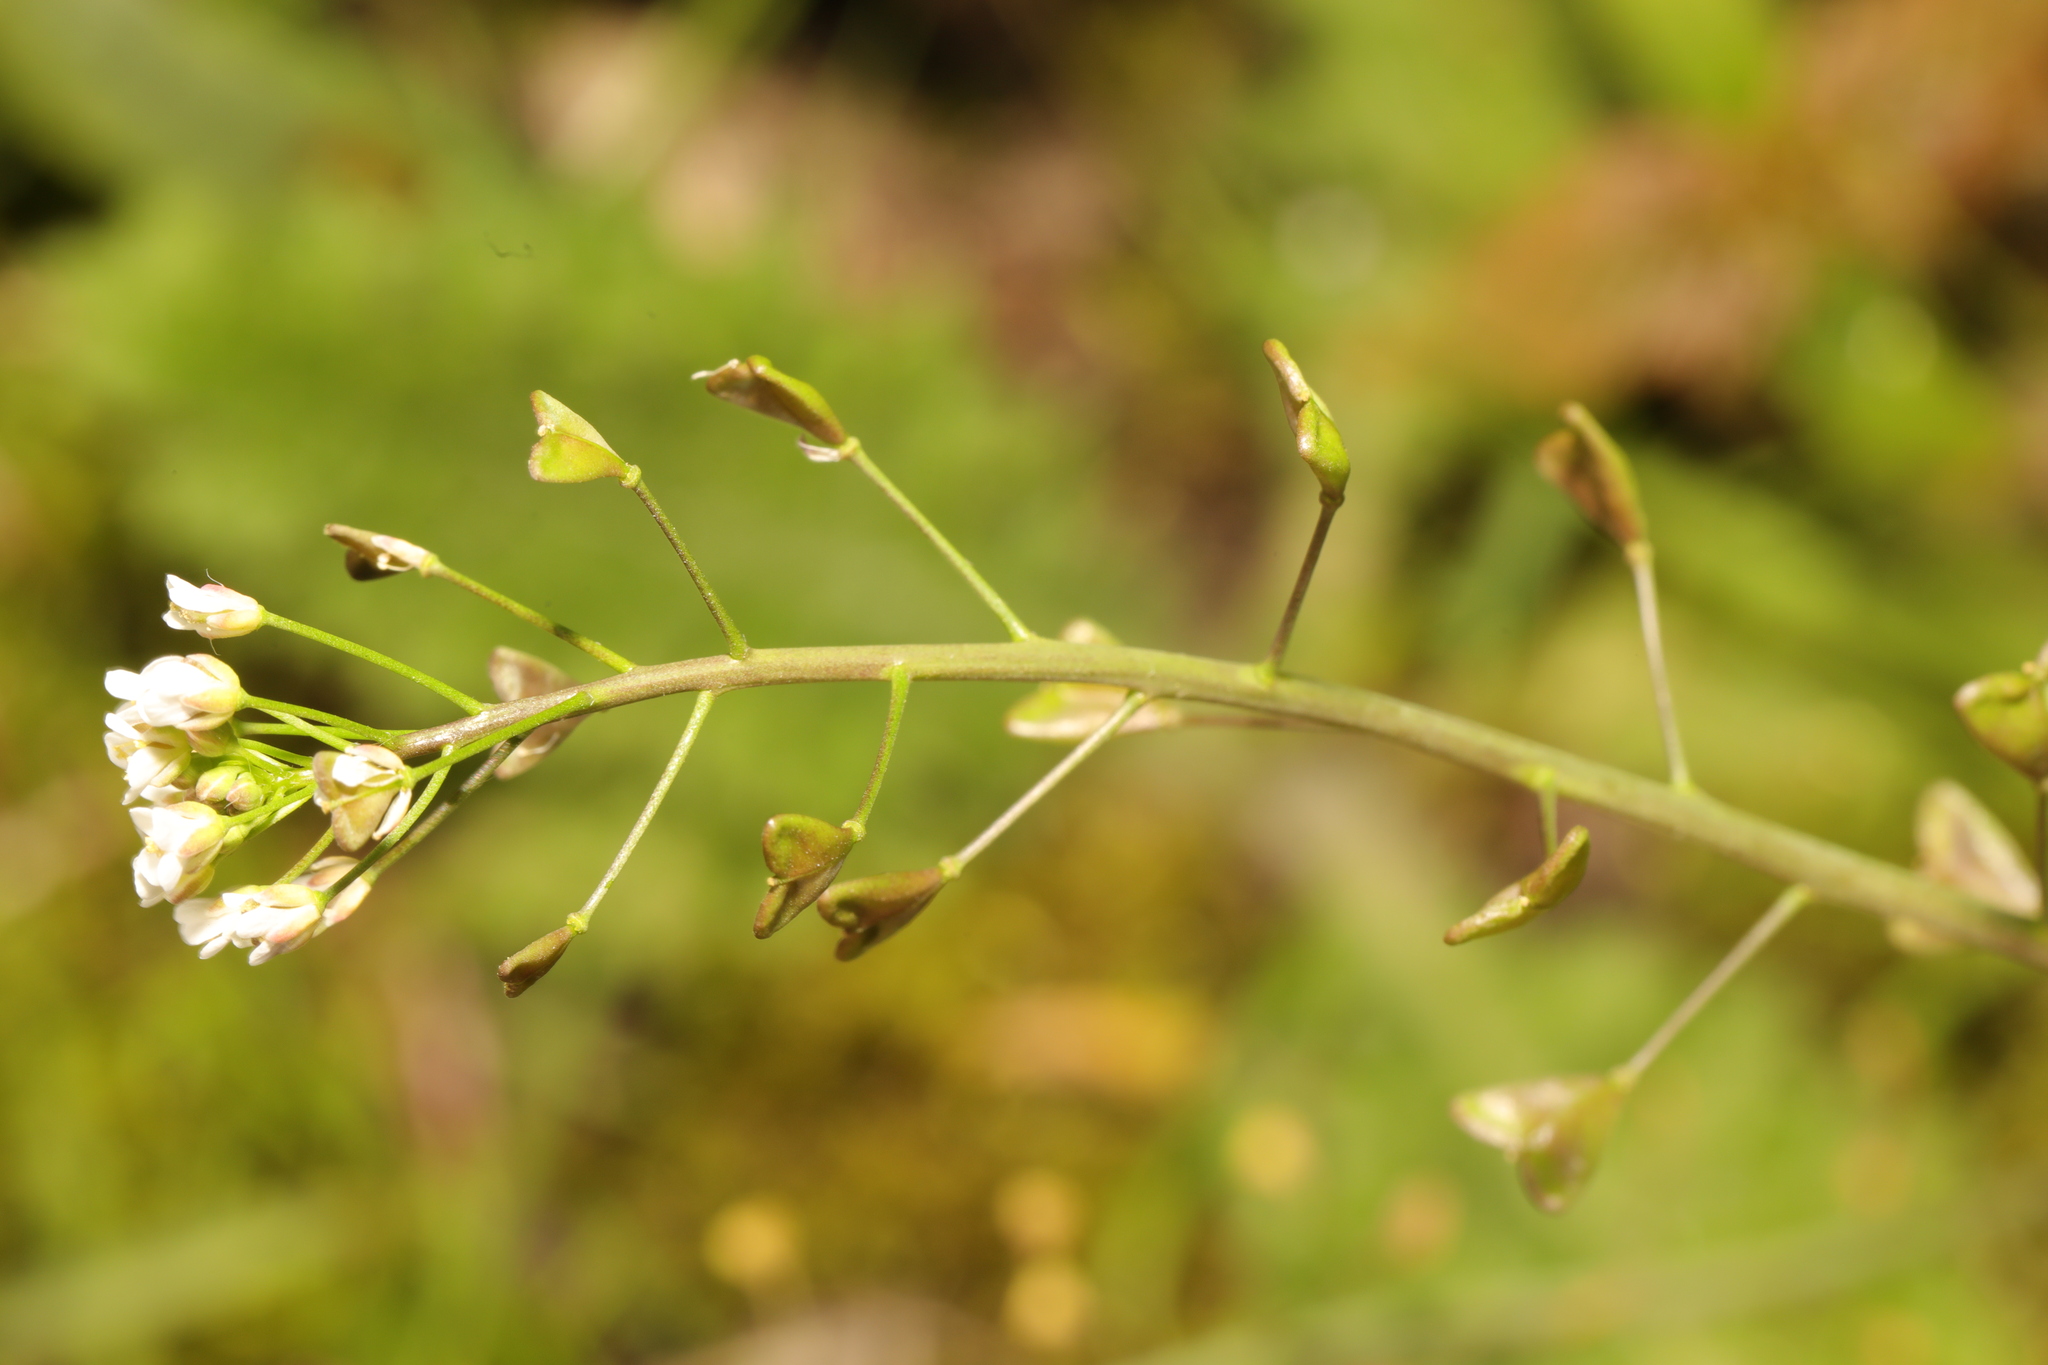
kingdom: Plantae
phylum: Tracheophyta
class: Magnoliopsida
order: Brassicales
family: Brassicaceae
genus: Capsella
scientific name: Capsella bursa-pastoris
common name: Shepherd's purse
